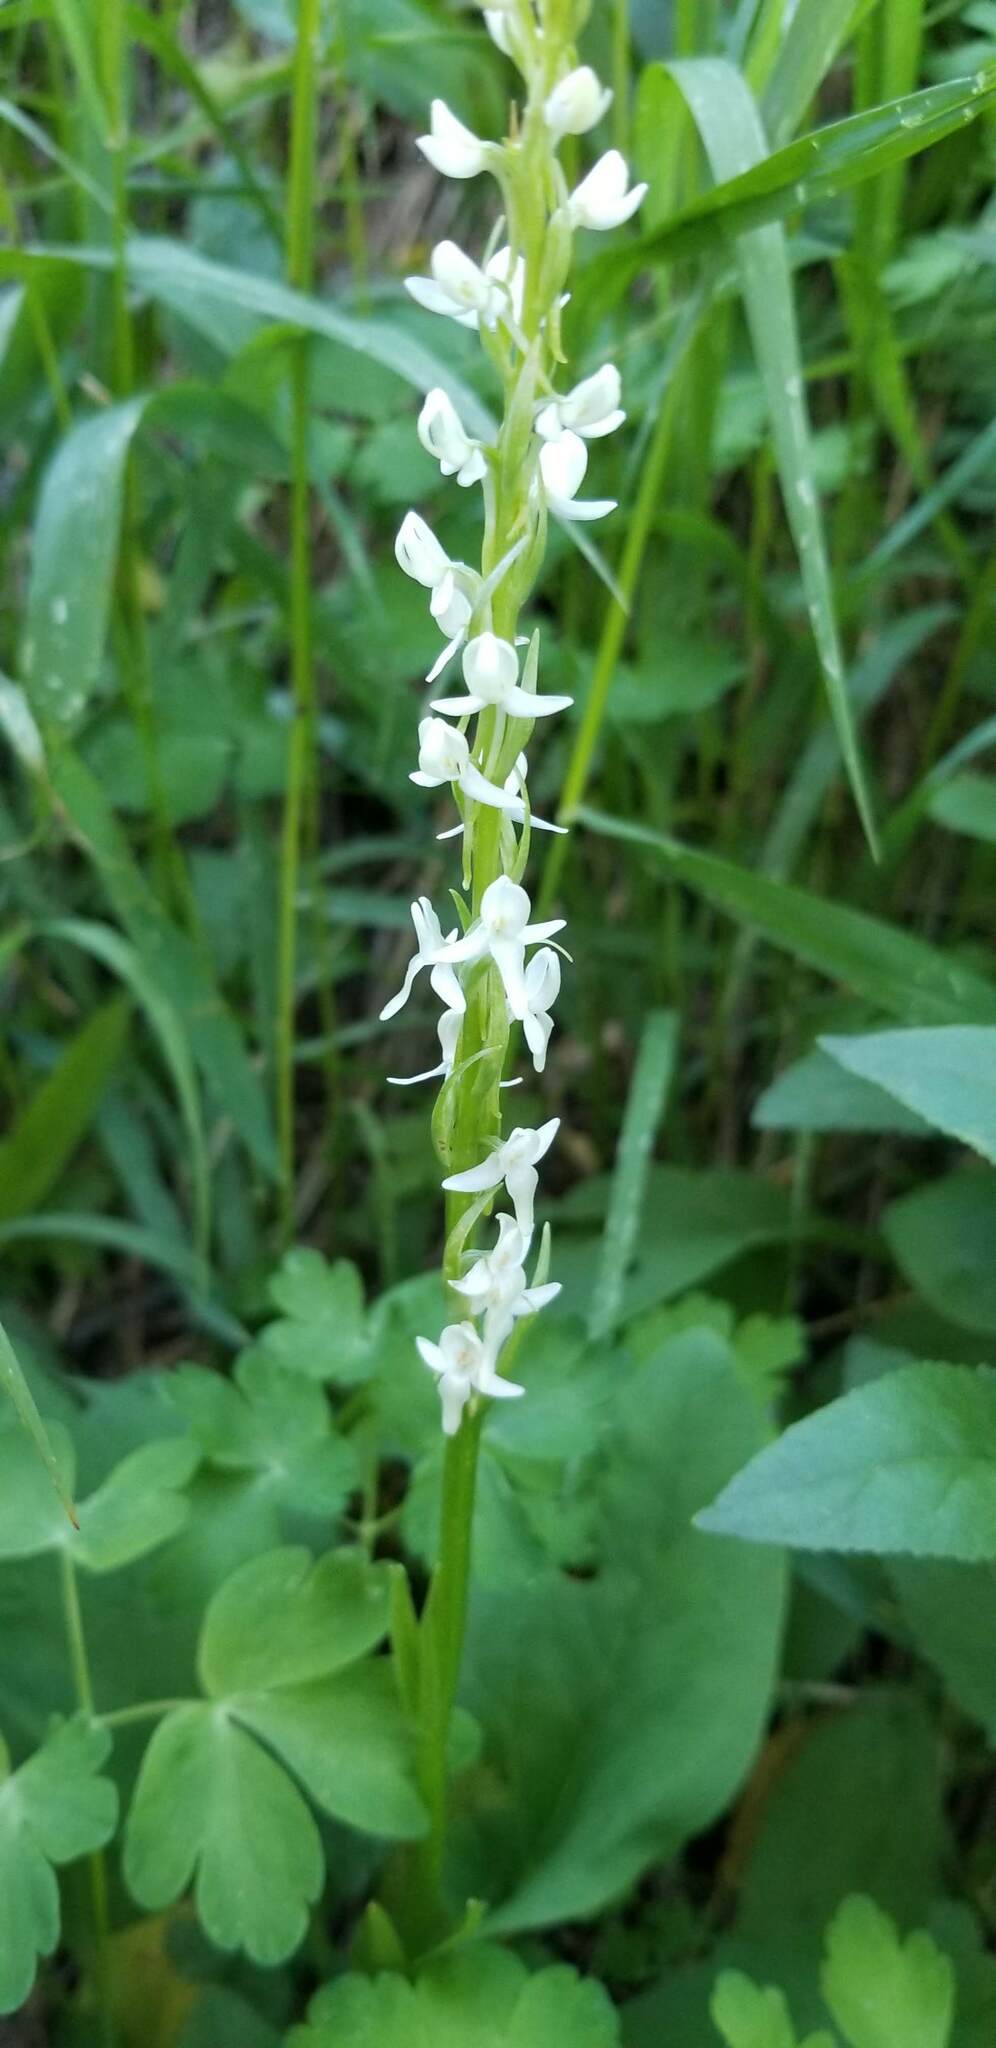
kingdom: Plantae
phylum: Tracheophyta
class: Liliopsida
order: Asparagales
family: Orchidaceae
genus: Platanthera
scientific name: Platanthera dilatata
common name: Bog candles
